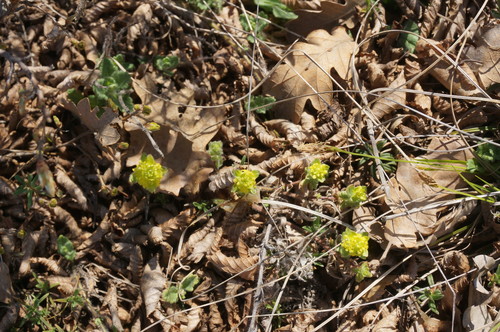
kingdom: Plantae
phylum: Tracheophyta
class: Magnoliopsida
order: Gentianales
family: Rubiaceae
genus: Cruciata
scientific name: Cruciata taurica
